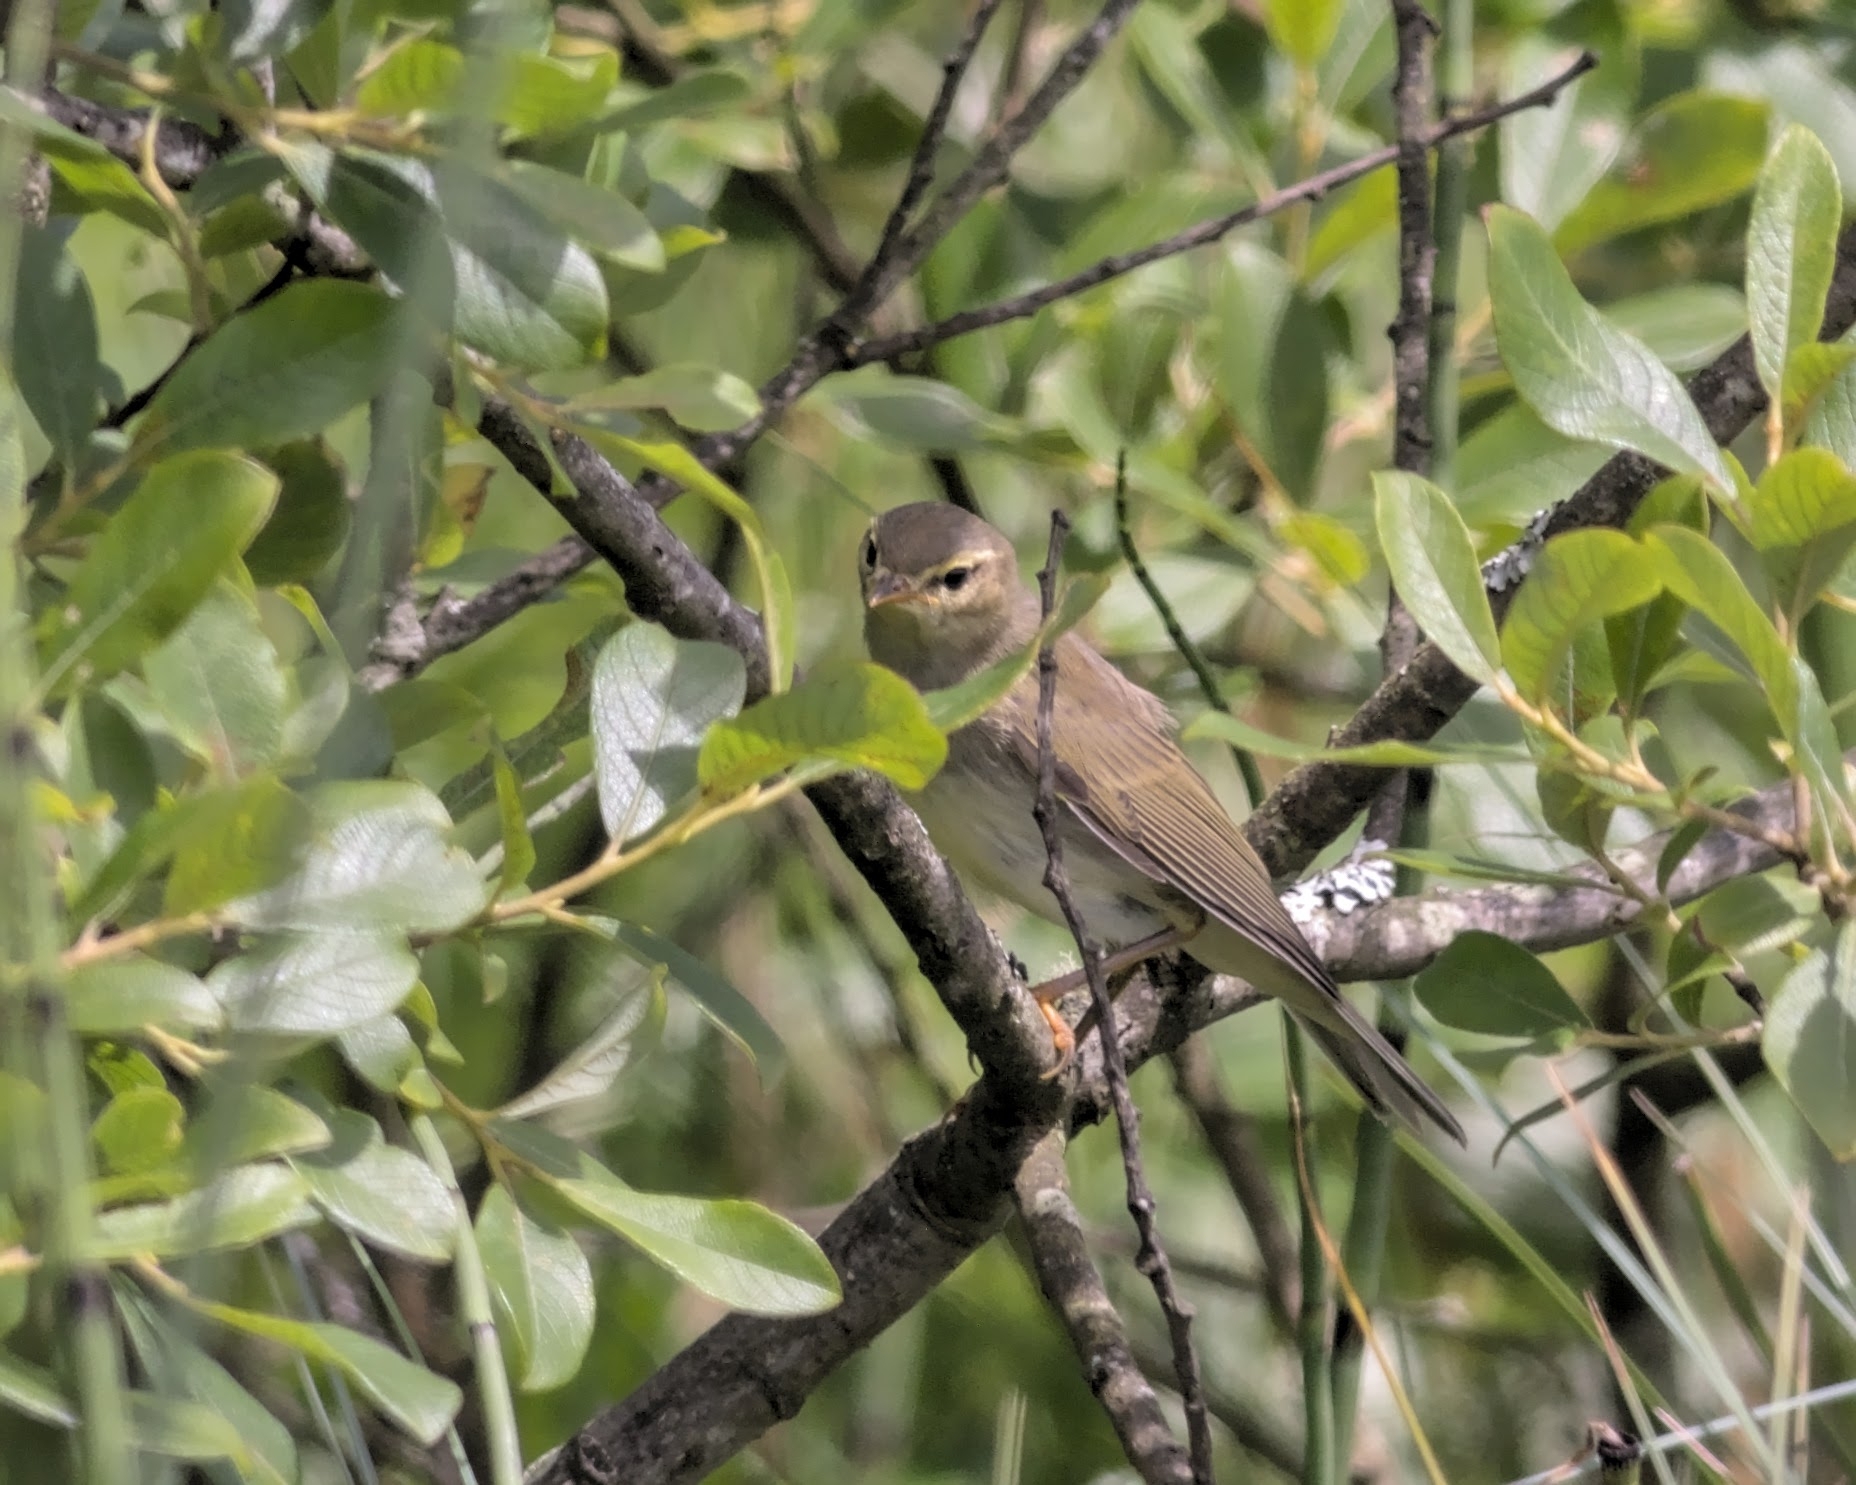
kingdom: Animalia
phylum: Chordata
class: Aves
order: Passeriformes
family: Phylloscopidae
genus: Phylloscopus
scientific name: Phylloscopus trochilus
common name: Willow warbler
